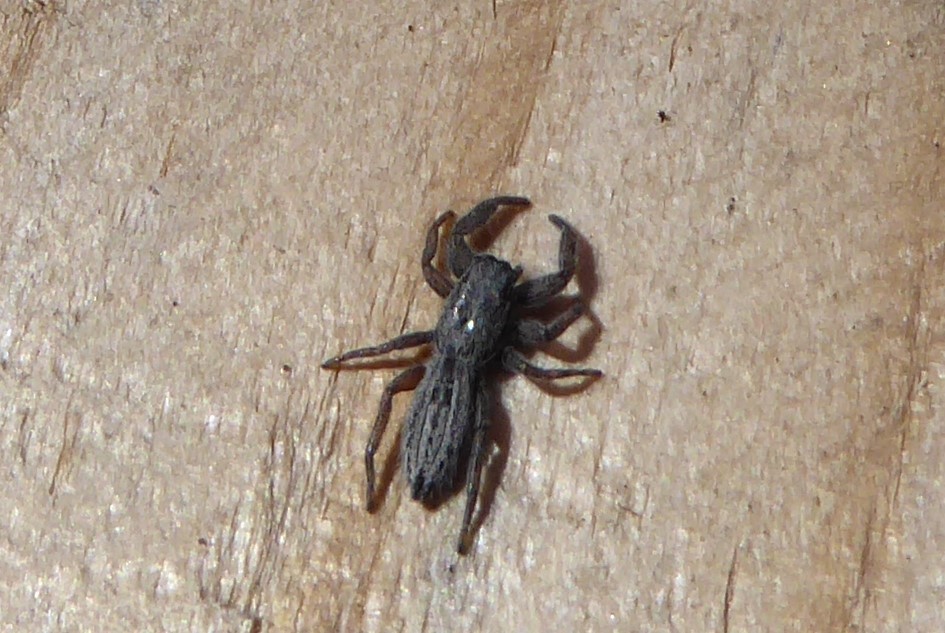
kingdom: Animalia
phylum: Arthropoda
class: Arachnida
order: Araneae
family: Salticidae
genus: Holoplatys
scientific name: Holoplatys apressus
